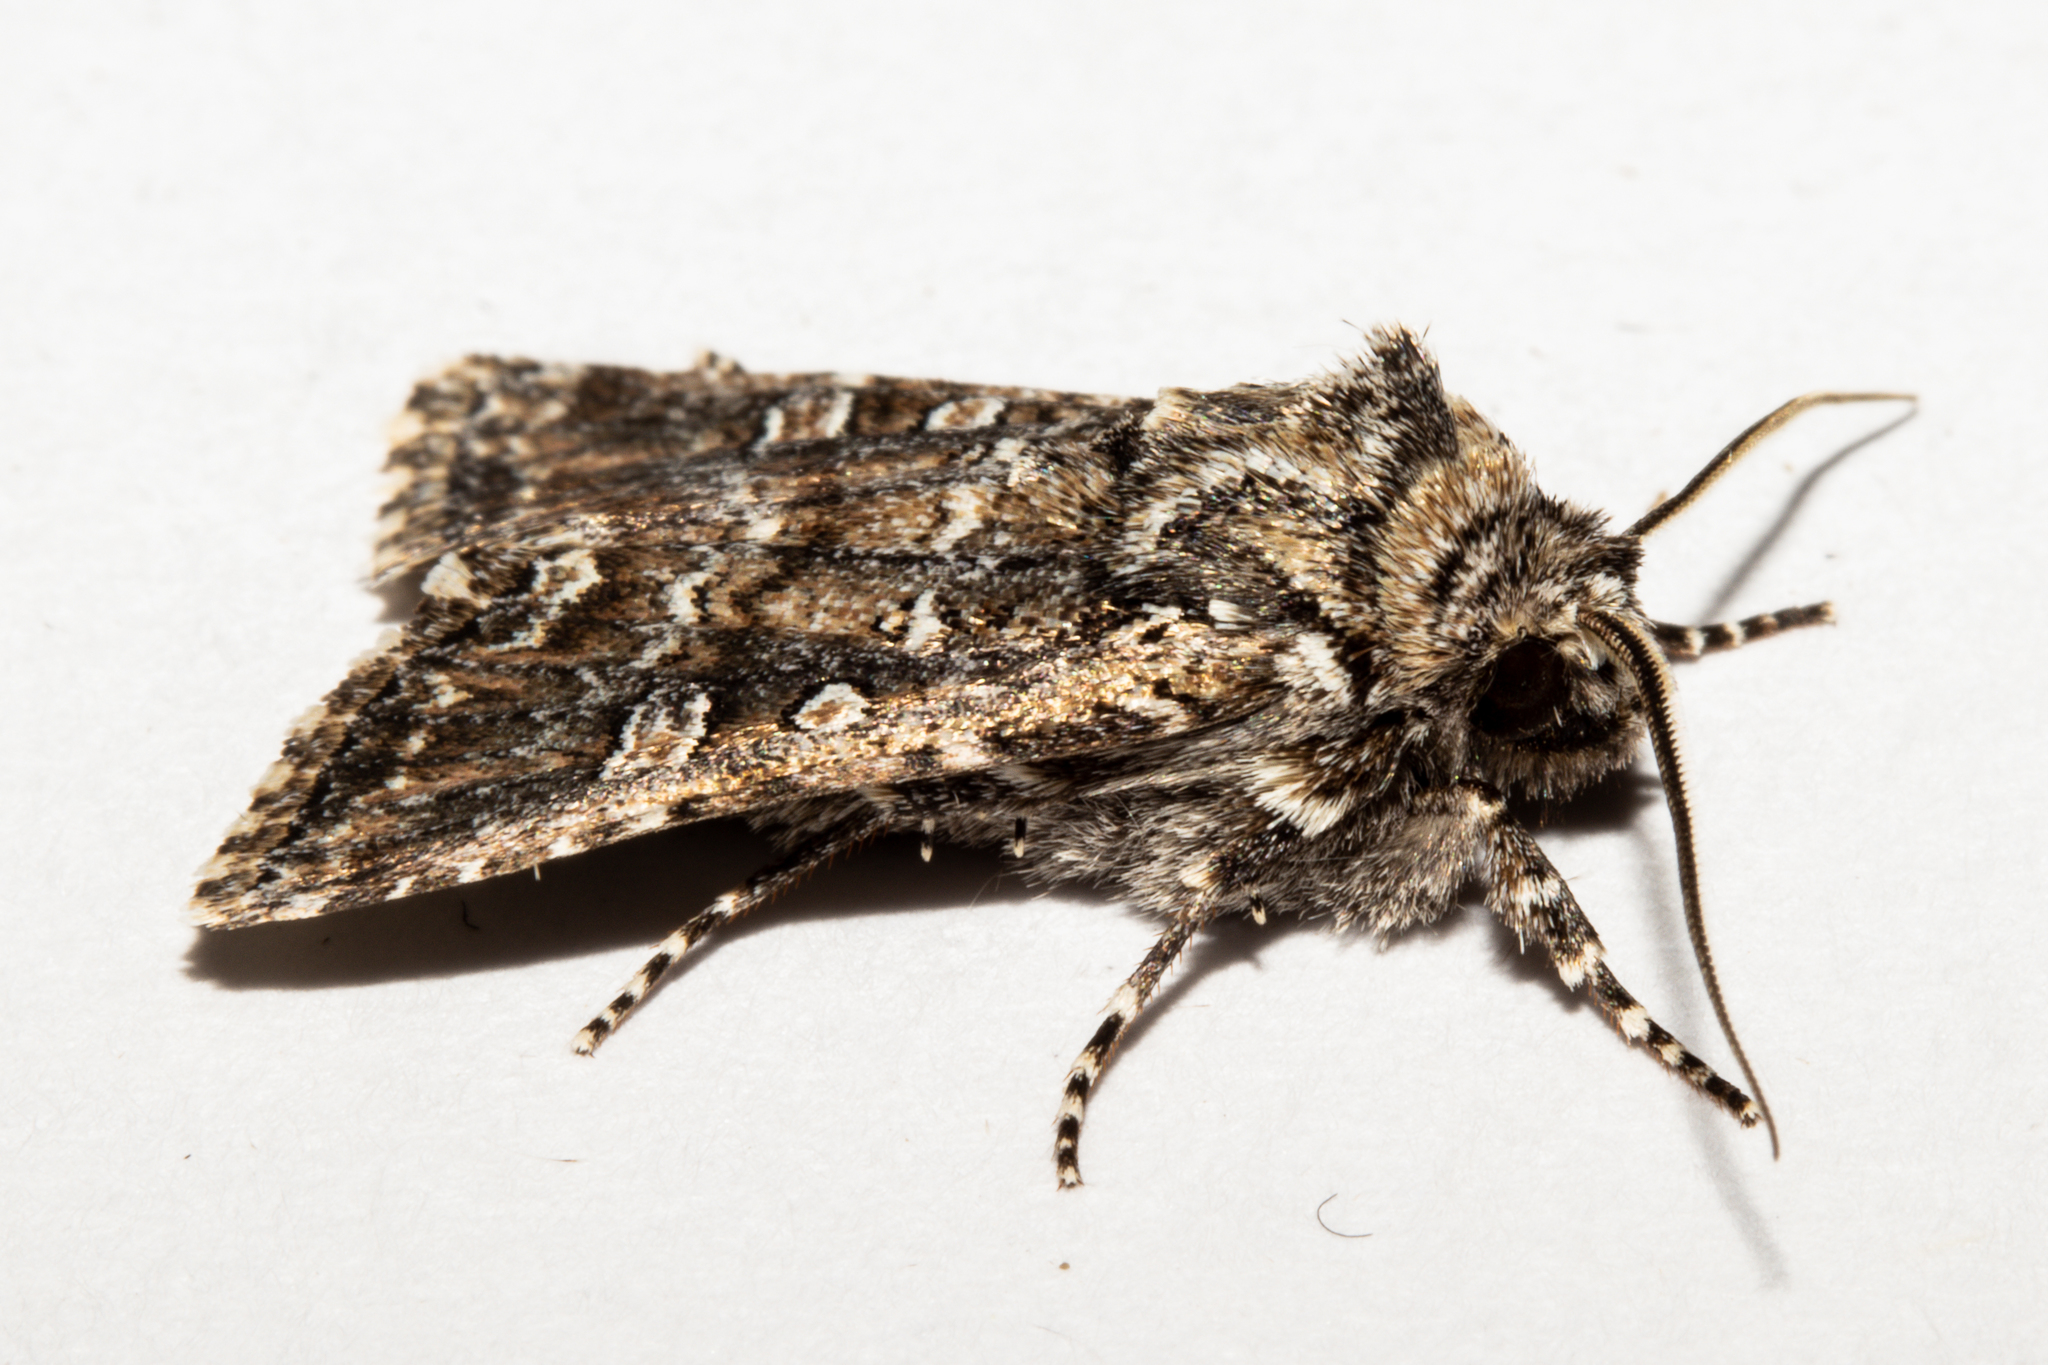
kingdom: Animalia
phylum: Arthropoda
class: Insecta
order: Lepidoptera
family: Noctuidae
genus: Ichneutica
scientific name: Ichneutica lithias
